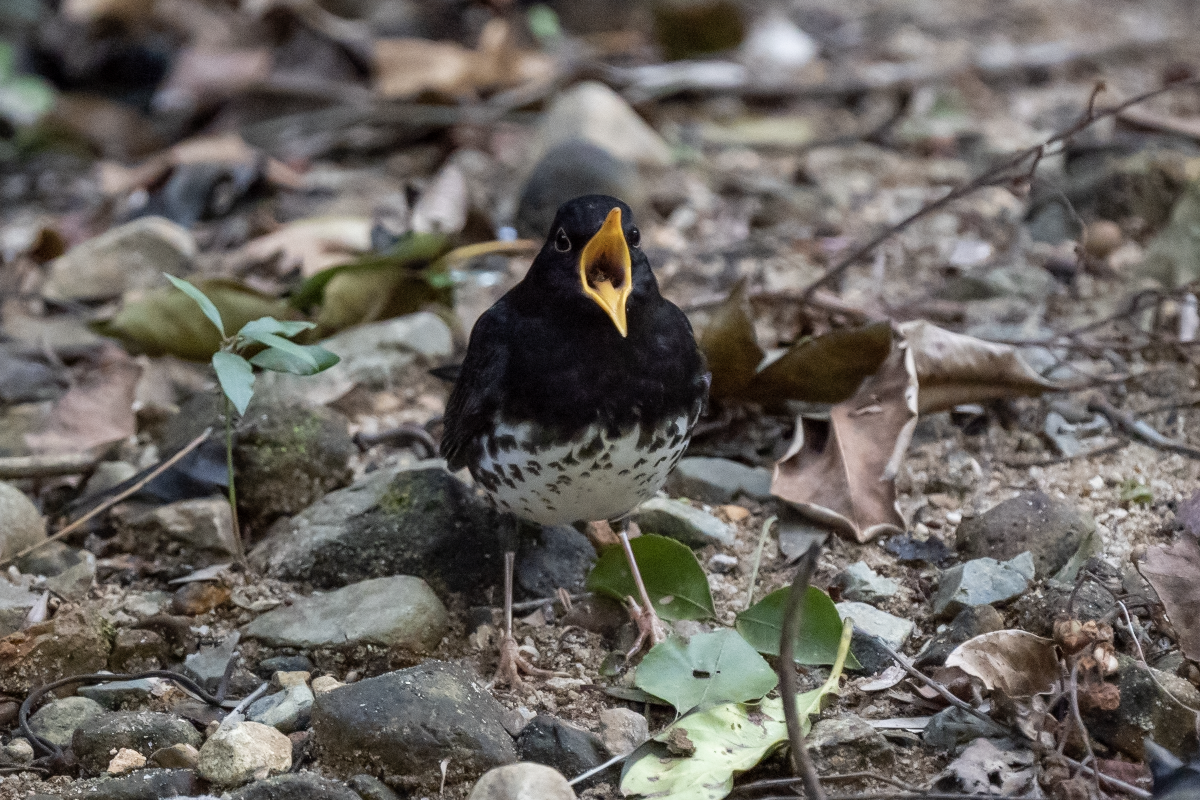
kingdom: Animalia
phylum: Chordata
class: Aves
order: Passeriformes
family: Turdidae
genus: Turdus
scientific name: Turdus cardis
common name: Japanese thrush
